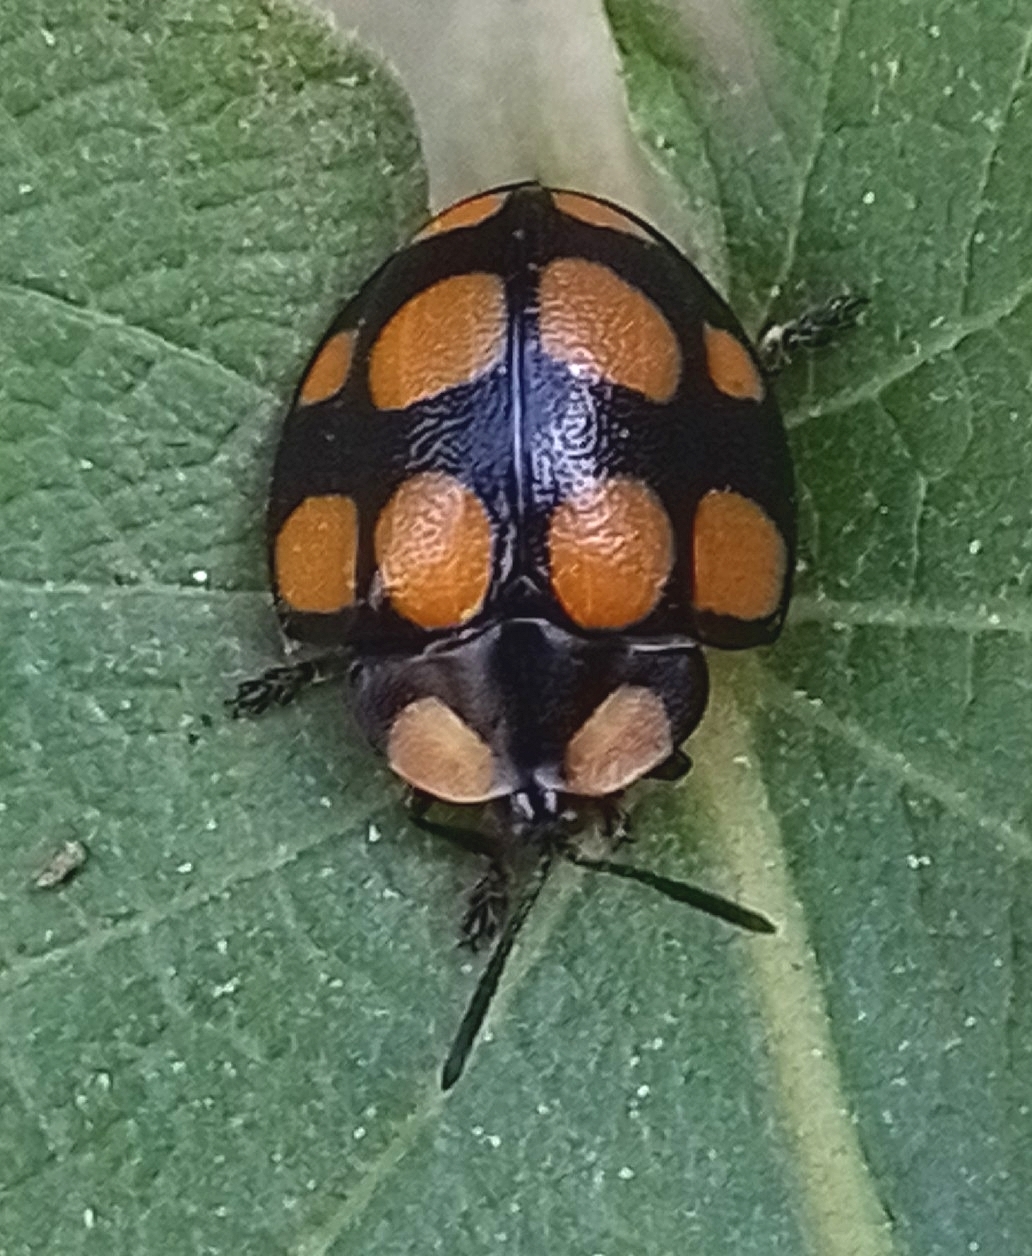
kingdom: Animalia
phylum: Arthropoda
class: Insecta
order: Coleoptera
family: Chrysomelidae
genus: Botanochara
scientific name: Botanochara decempustulata
